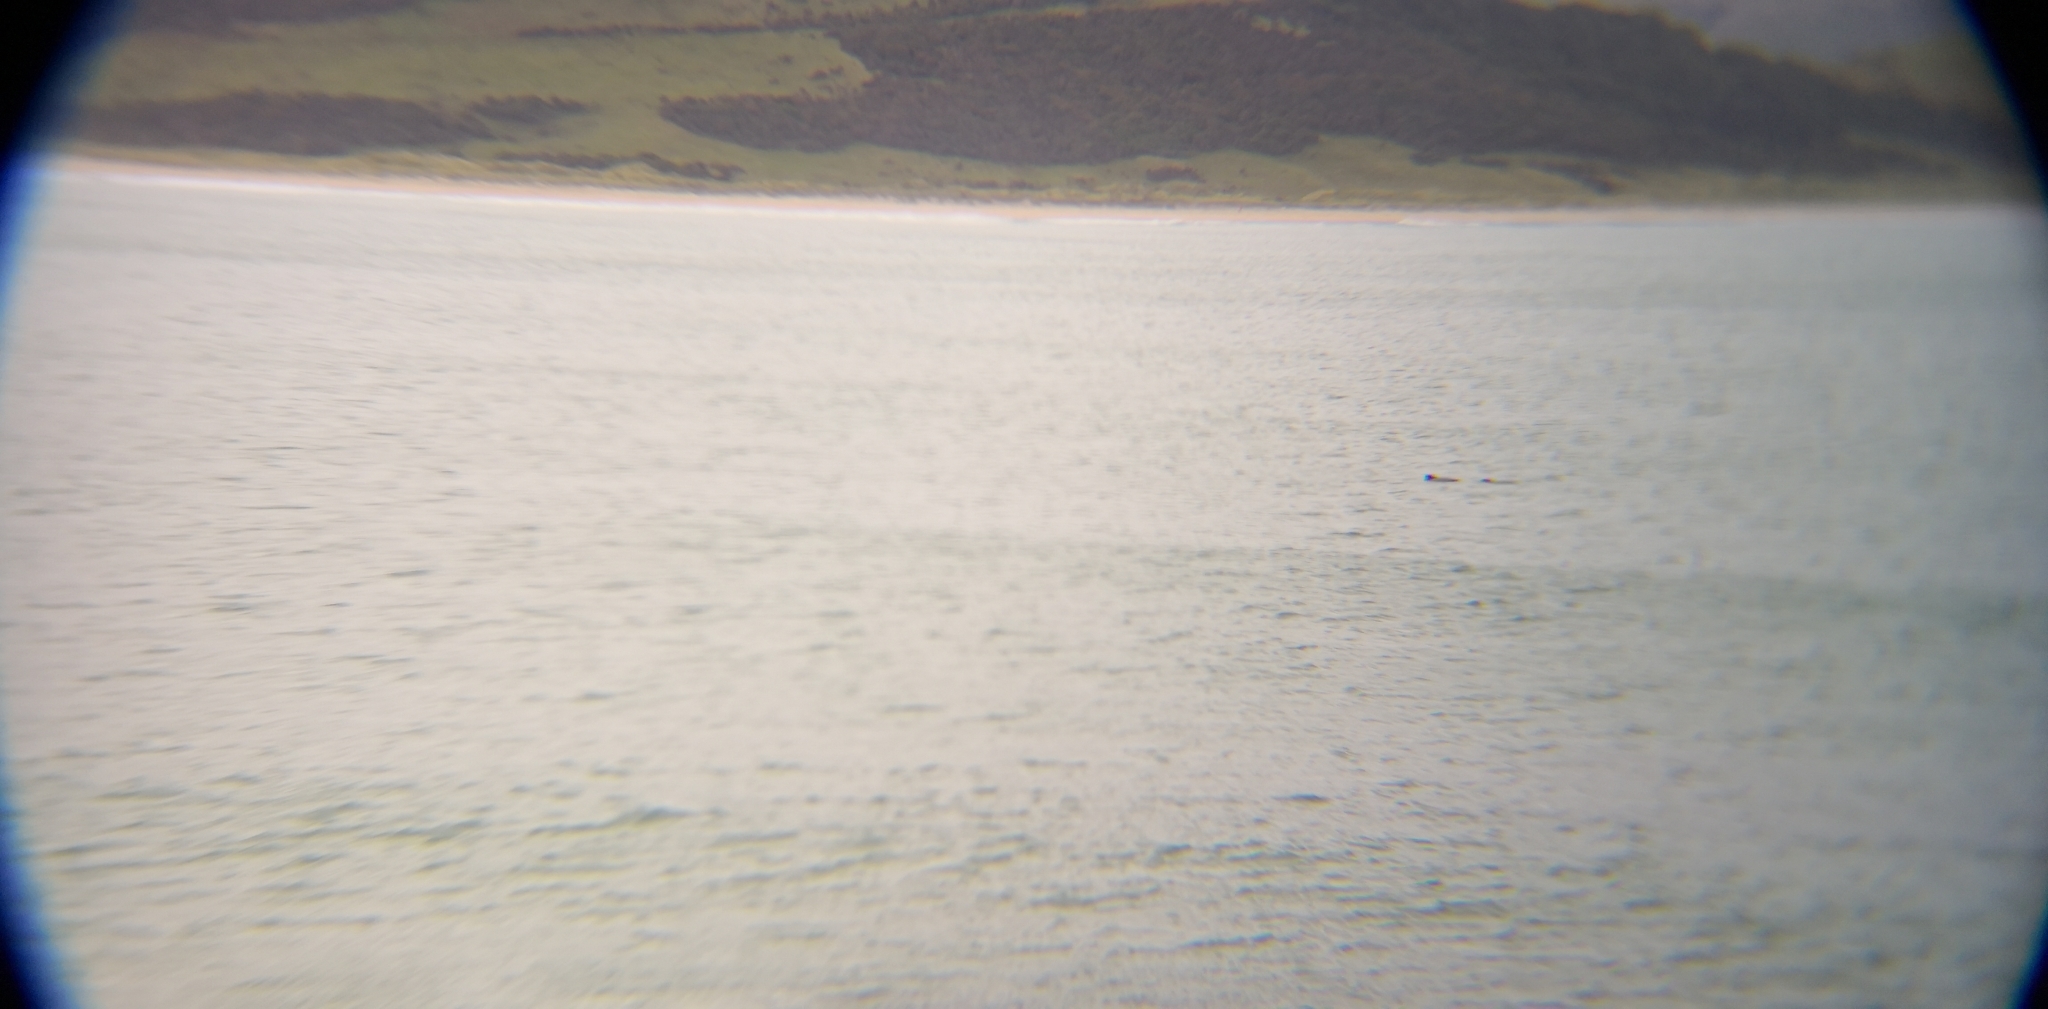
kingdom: Animalia
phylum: Chordata
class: Mammalia
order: Cetacea
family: Delphinidae
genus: Cephalorhynchus
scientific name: Cephalorhynchus hectori
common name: Hector's dolphin
